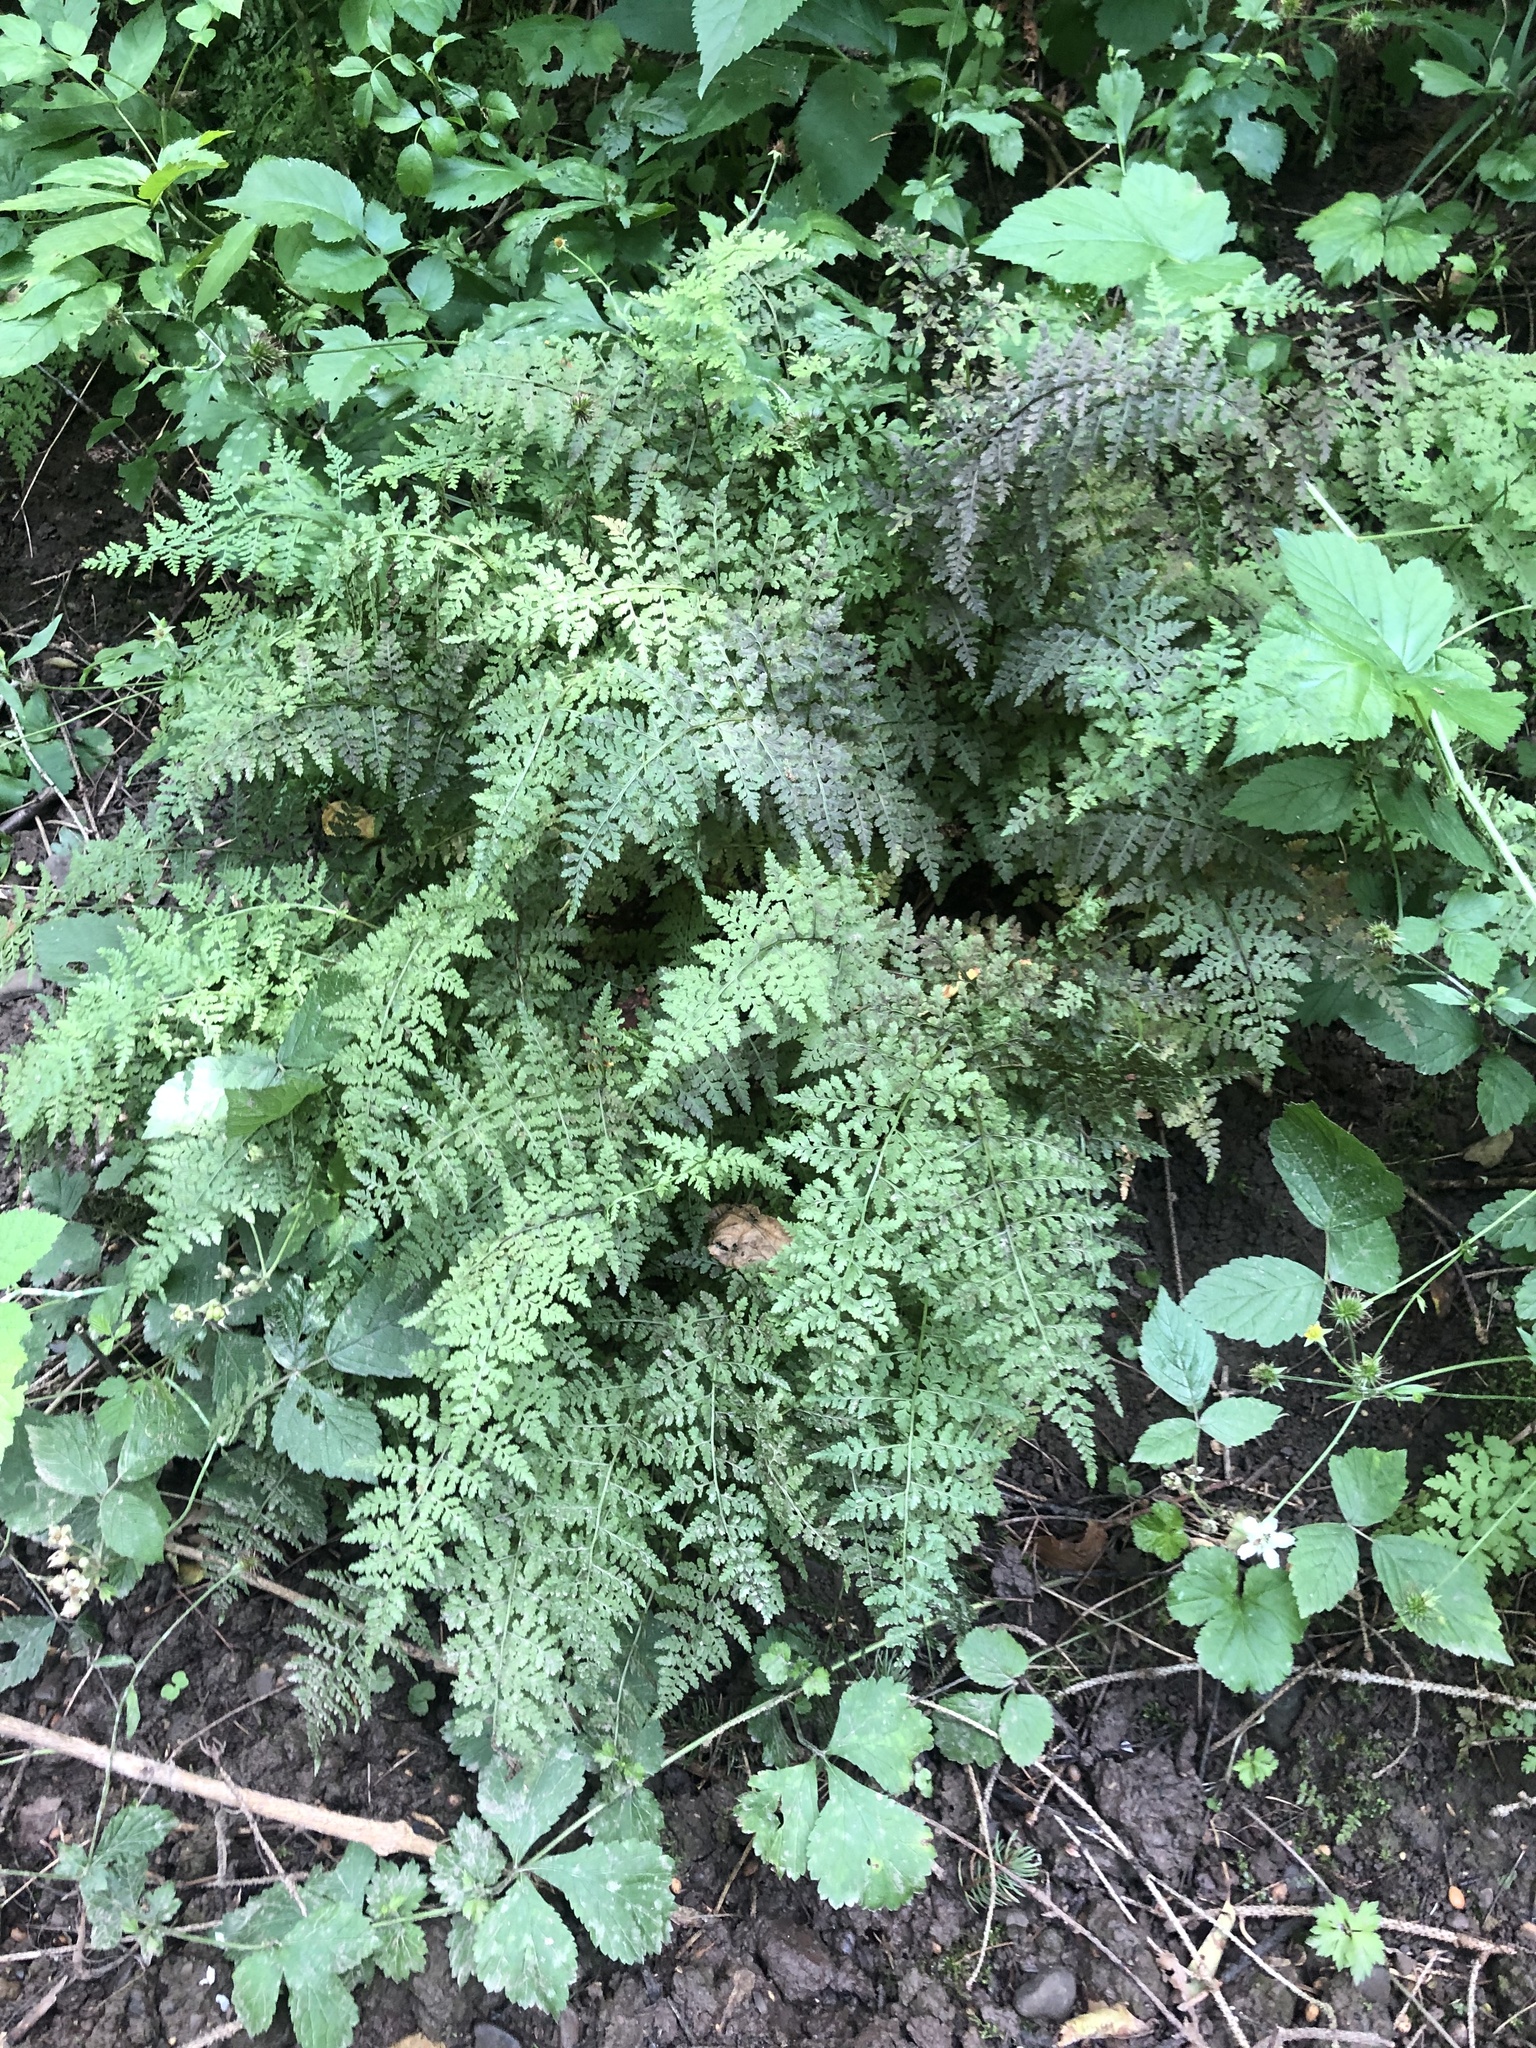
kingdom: Plantae
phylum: Tracheophyta
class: Polypodiopsida
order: Polypodiales
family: Cystopteridaceae
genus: Cystopteris
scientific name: Cystopteris fragilis
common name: Brittle bladder fern
